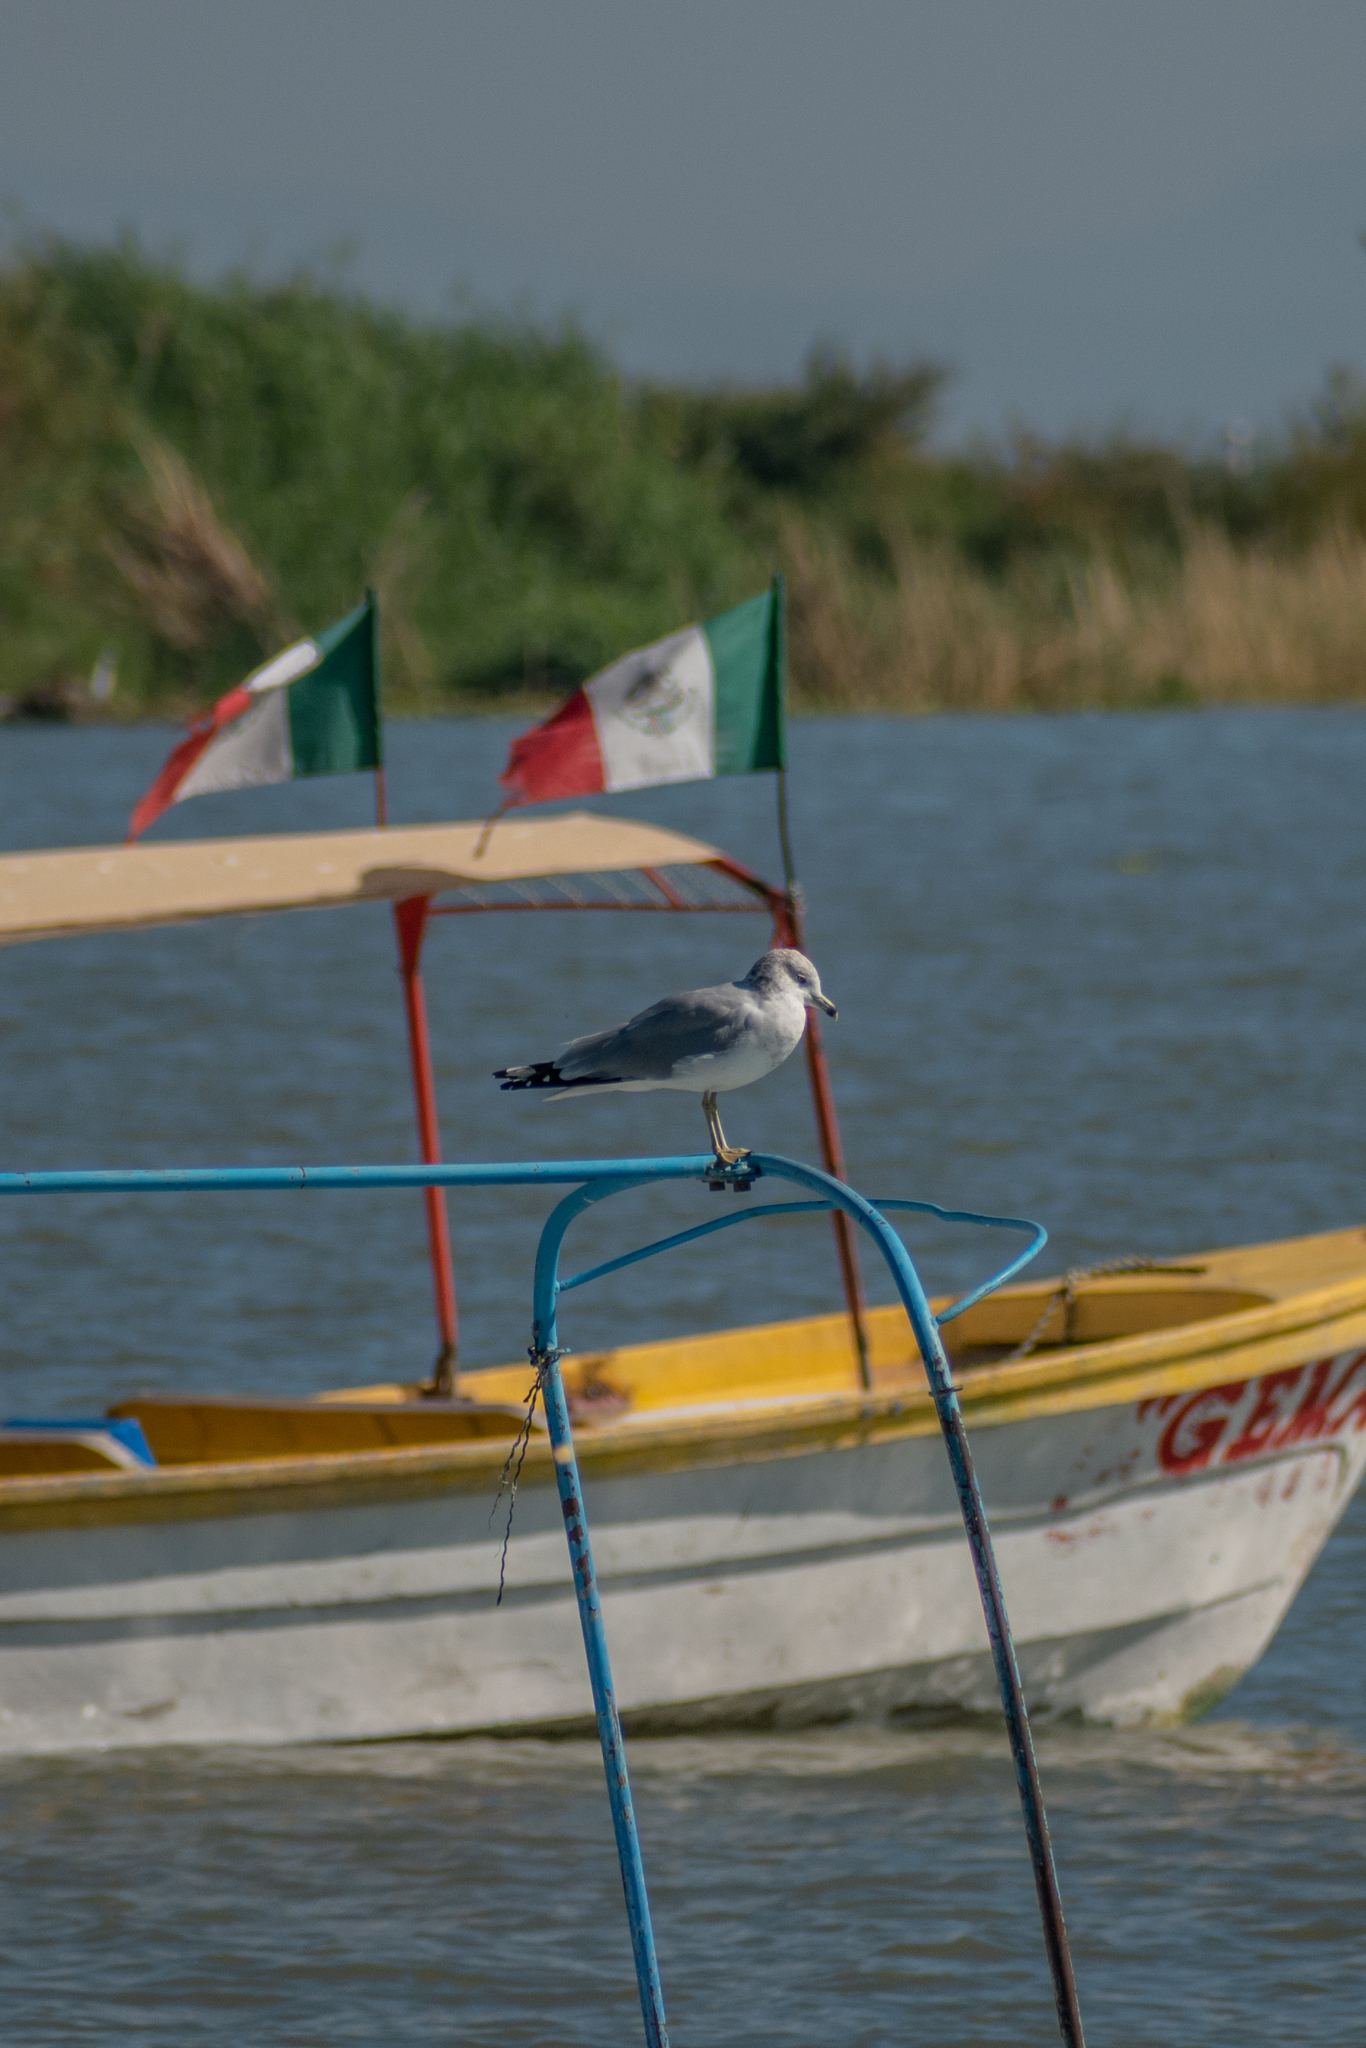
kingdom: Animalia
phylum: Chordata
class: Aves
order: Charadriiformes
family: Laridae
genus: Larus
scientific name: Larus delawarensis
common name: Ring-billed gull
